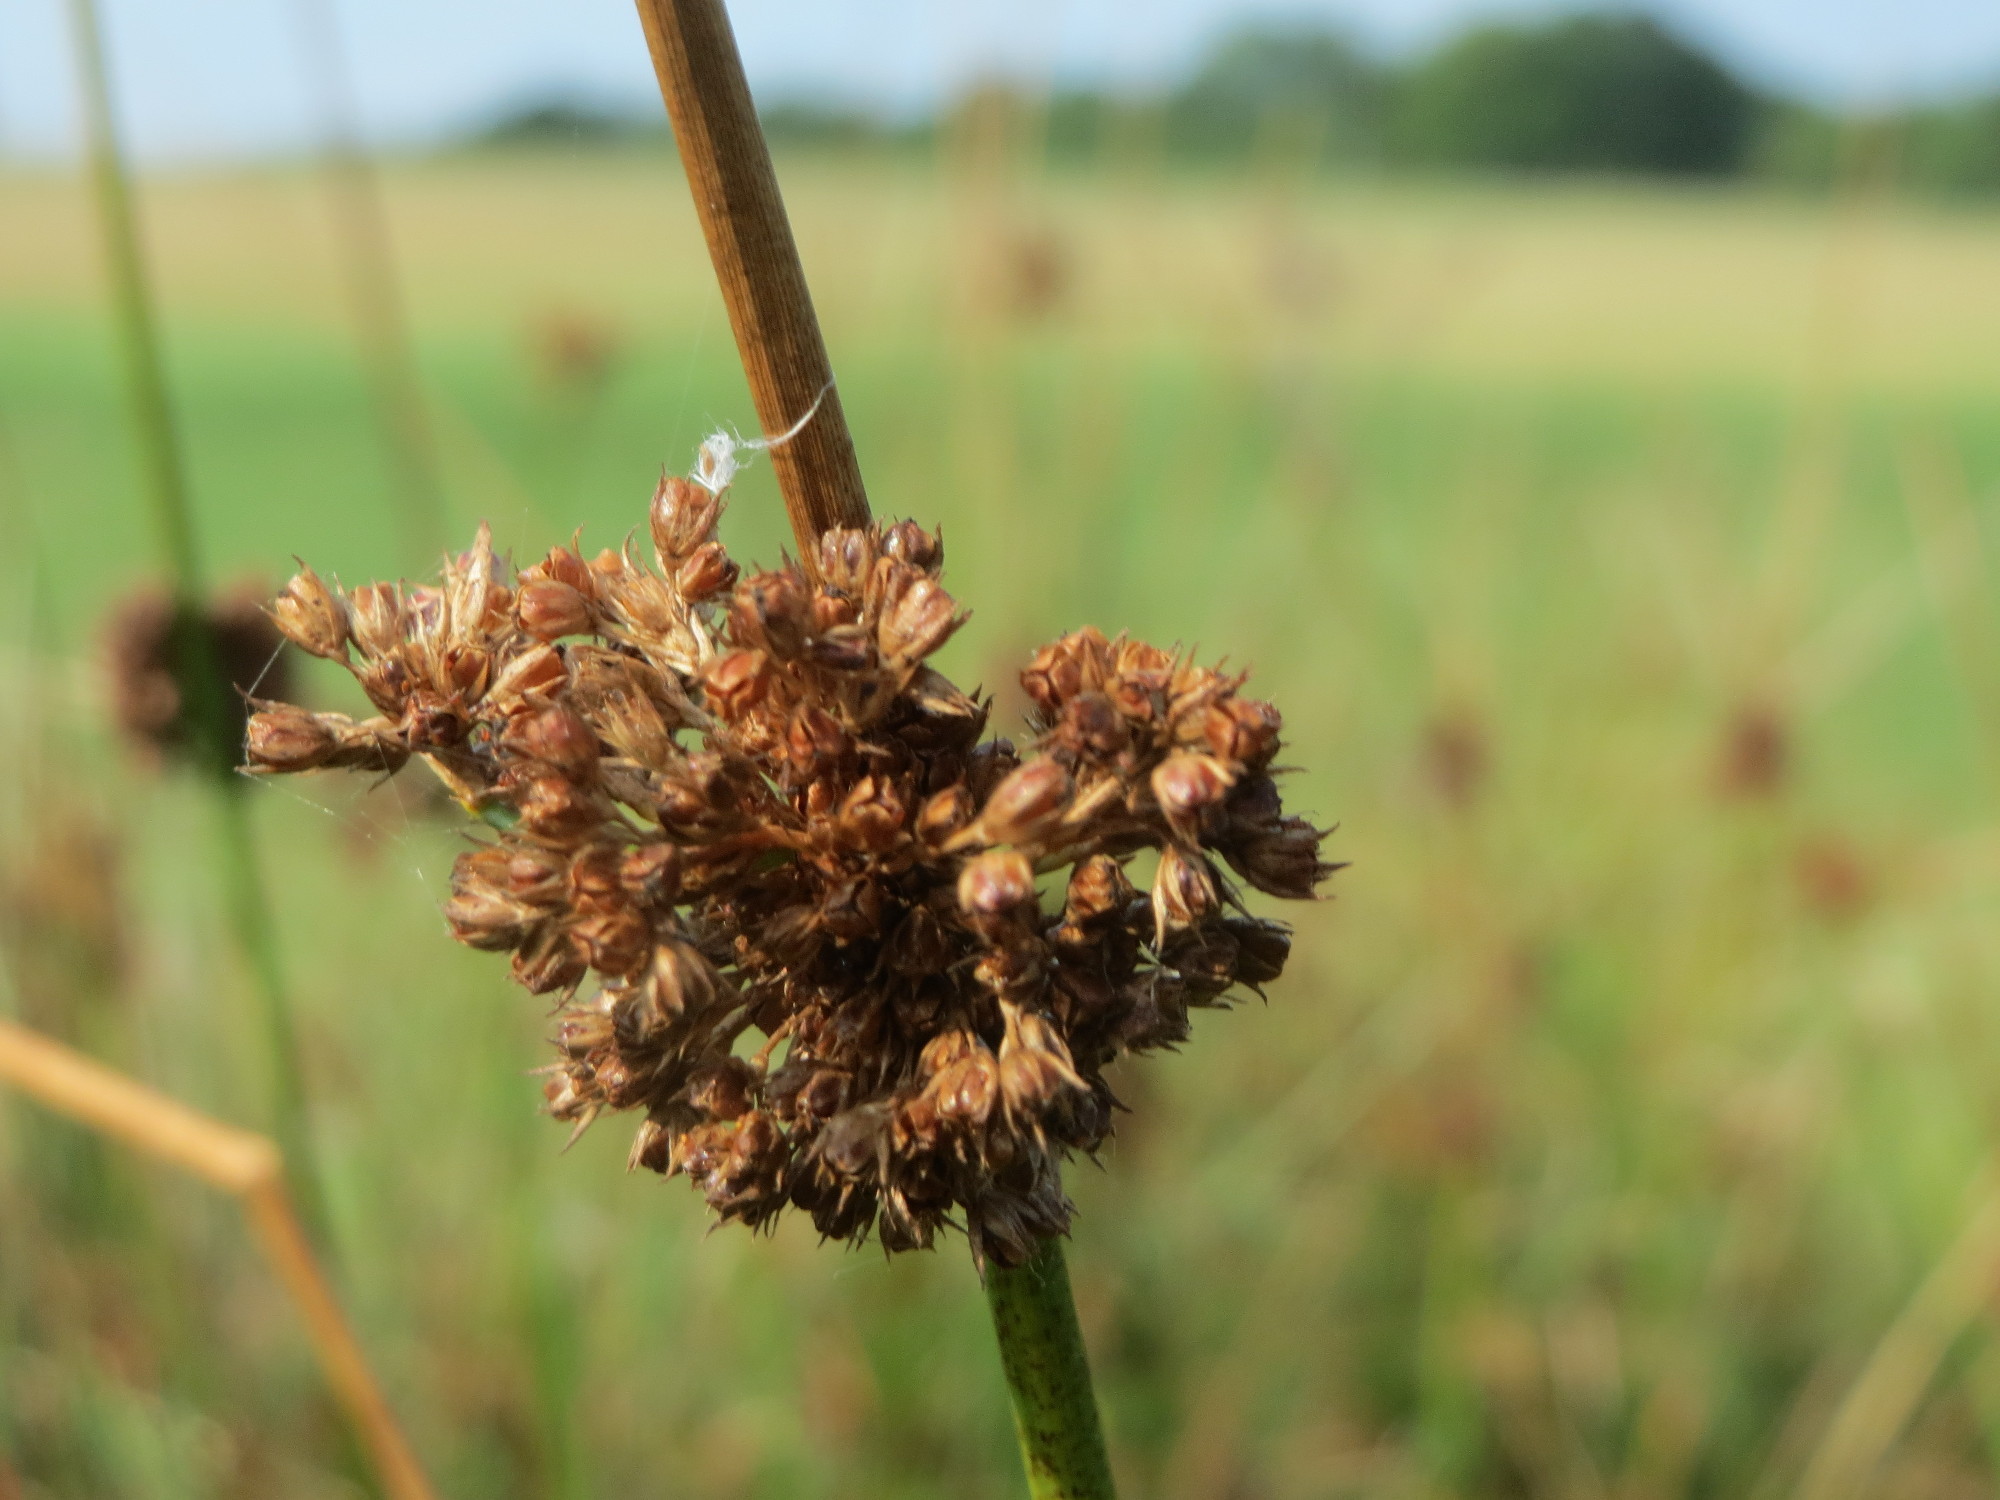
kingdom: Plantae
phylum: Tracheophyta
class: Liliopsida
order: Poales
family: Juncaceae
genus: Juncus
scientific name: Juncus conglomeratus
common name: Compact rush
